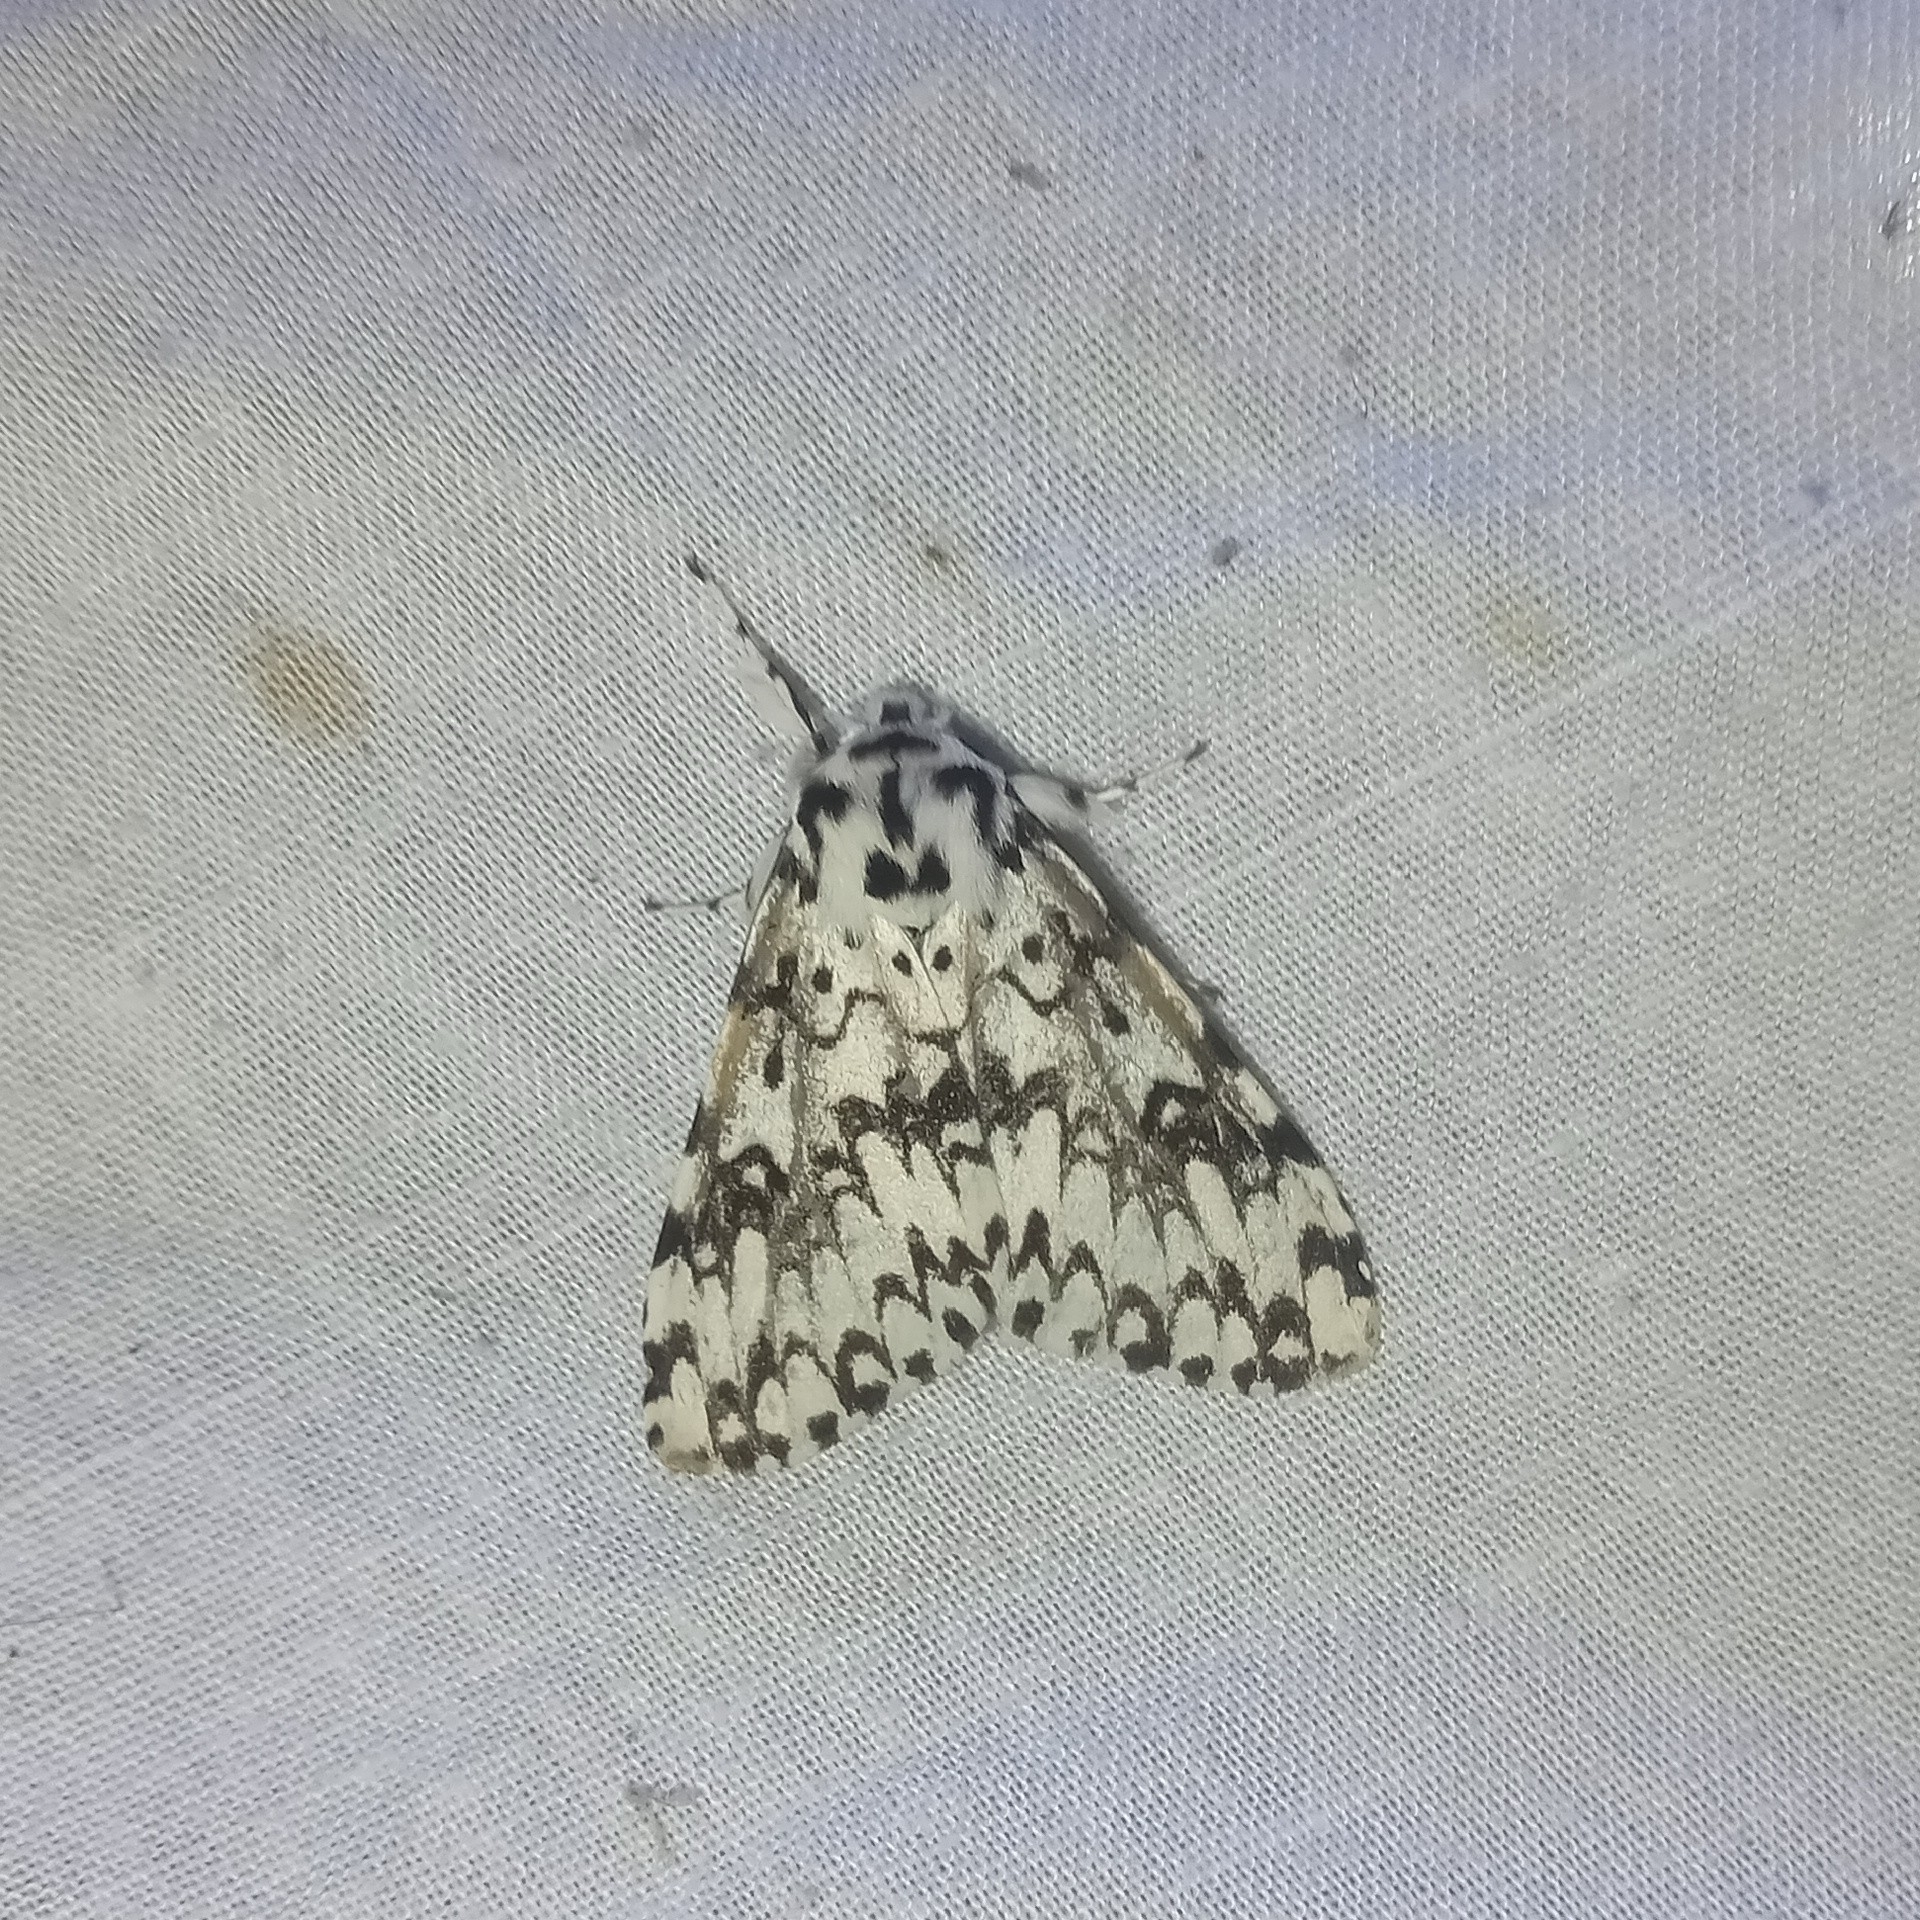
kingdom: Animalia
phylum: Arthropoda
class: Insecta
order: Lepidoptera
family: Erebidae
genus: Lymantria
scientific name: Lymantria concolor
